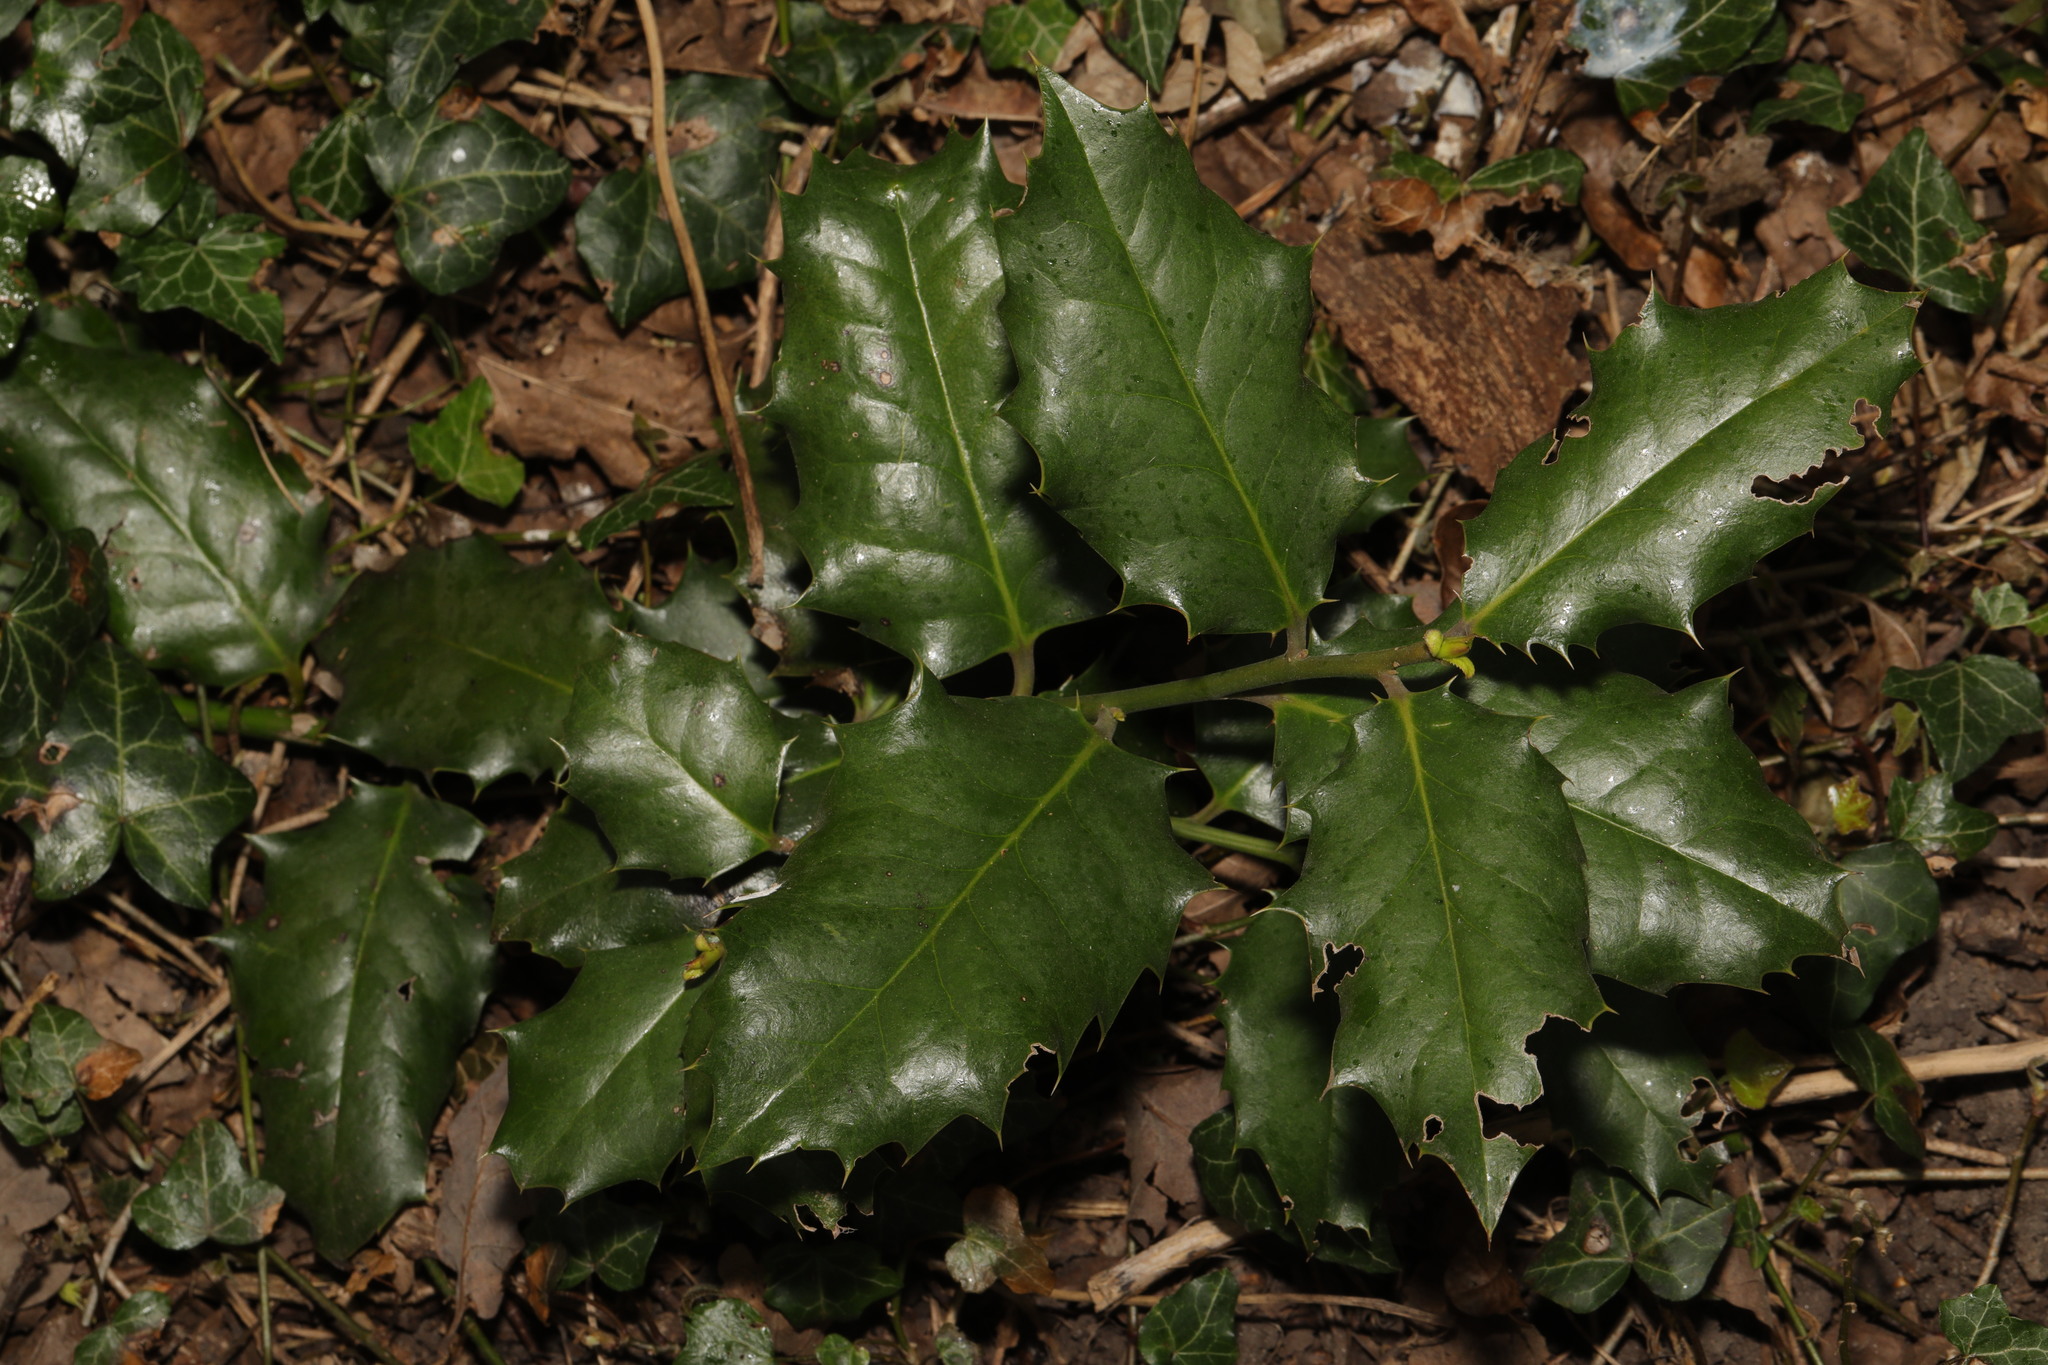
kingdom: Plantae
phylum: Tracheophyta
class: Magnoliopsida
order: Aquifoliales
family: Aquifoliaceae
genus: Ilex
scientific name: Ilex aquifolium
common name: English holly
